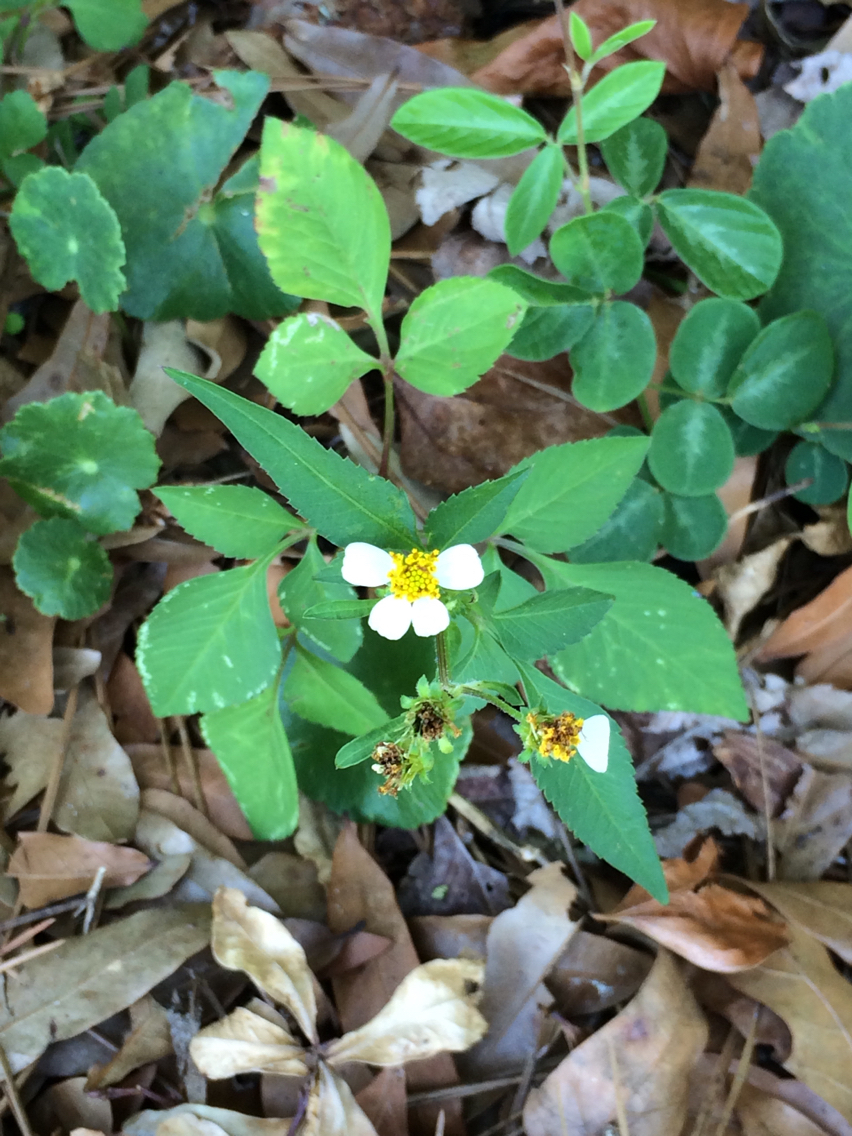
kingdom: Plantae
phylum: Tracheophyta
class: Magnoliopsida
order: Asterales
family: Asteraceae
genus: Bidens
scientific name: Bidens alba
